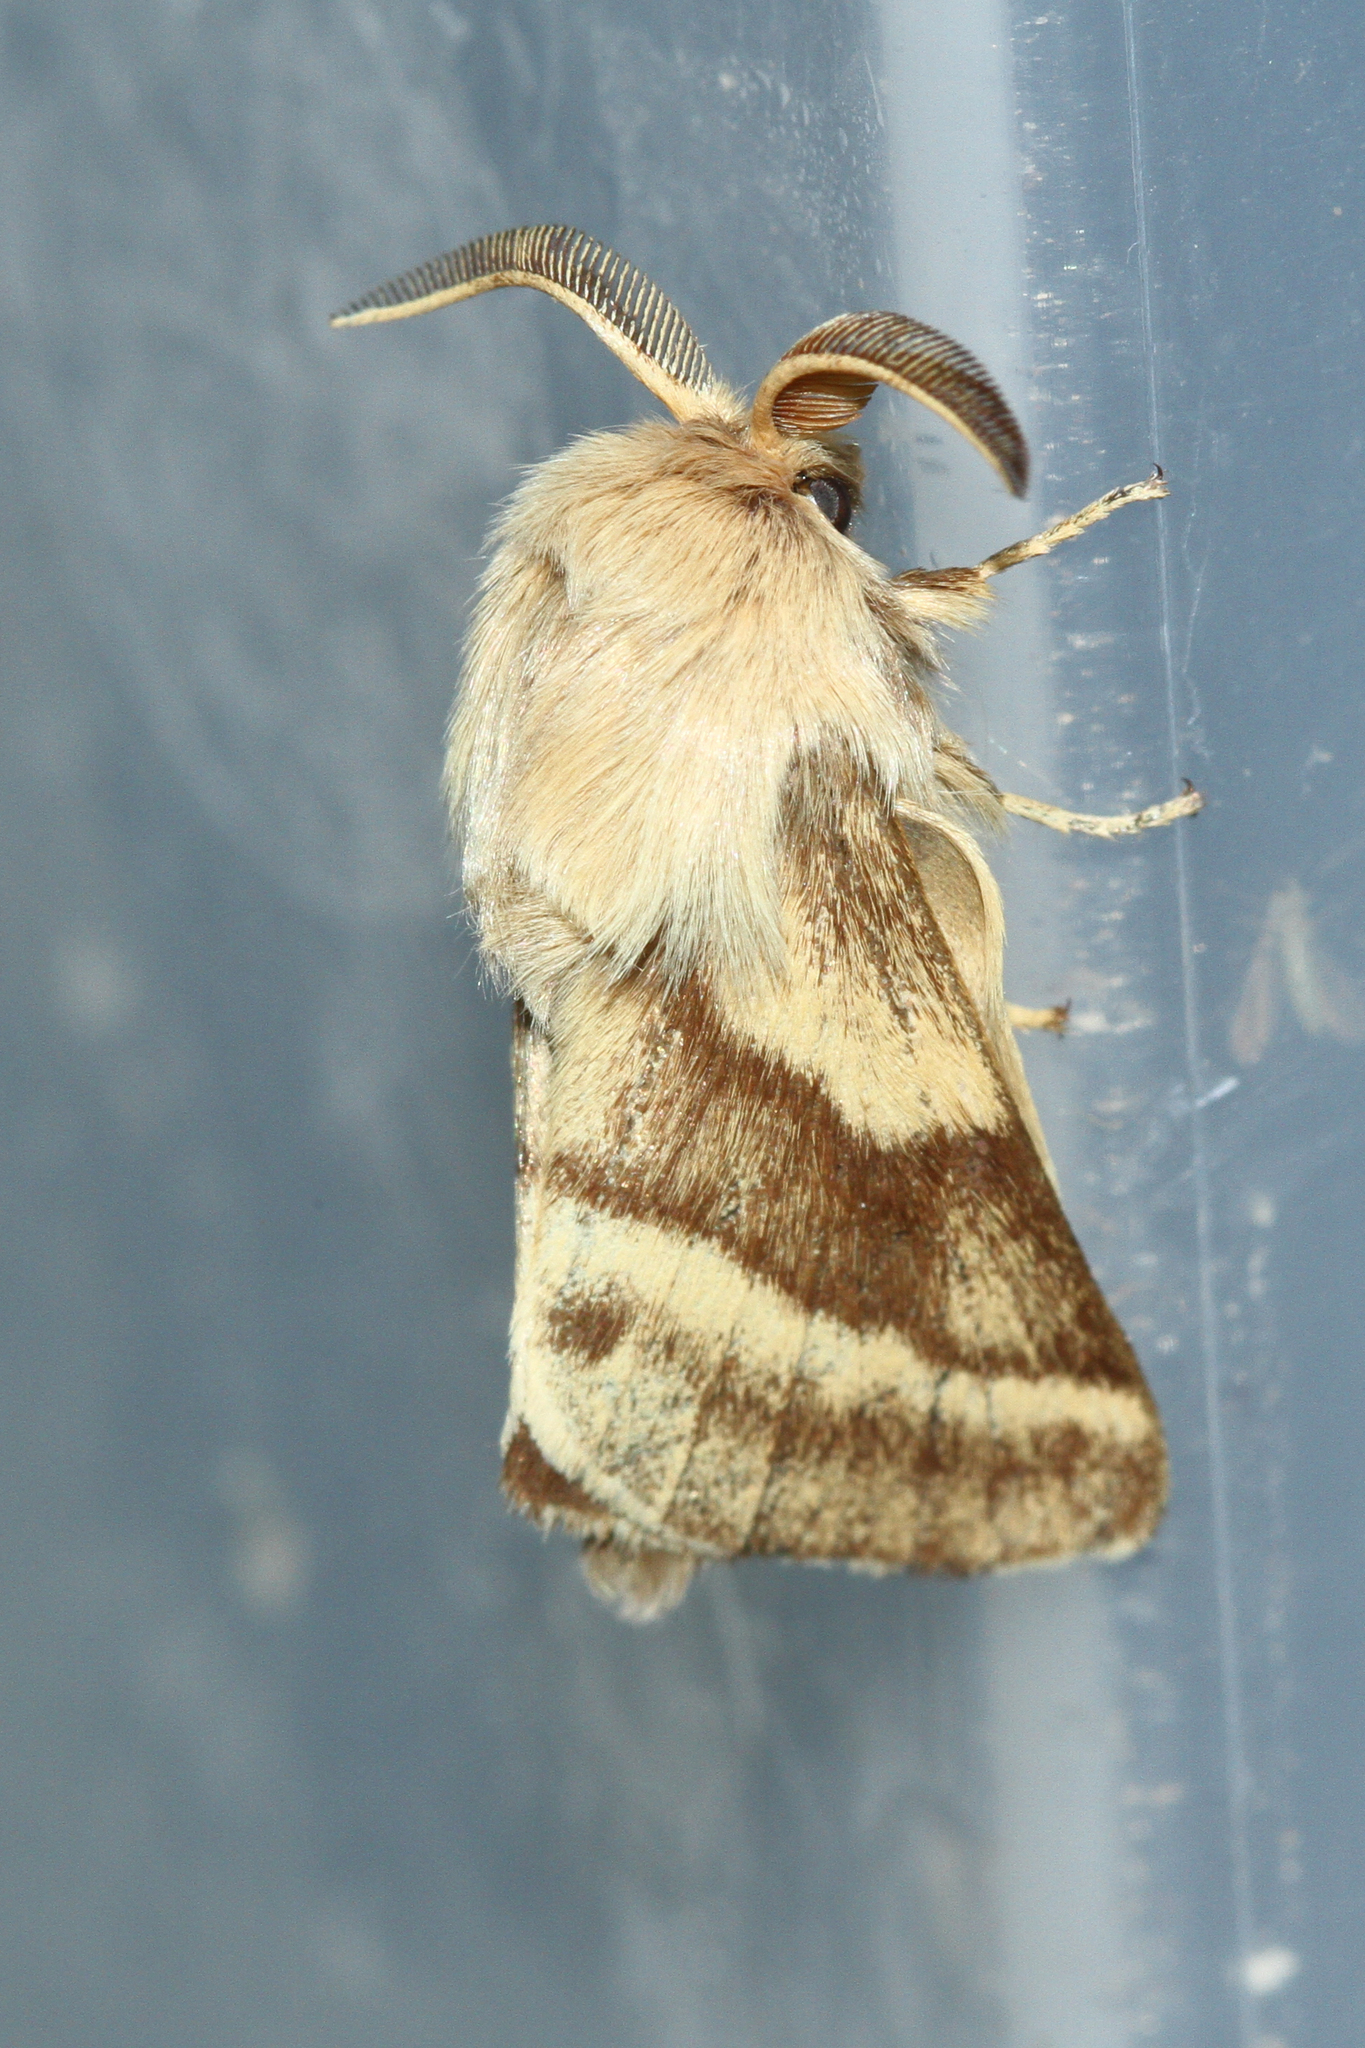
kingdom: Animalia
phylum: Arthropoda
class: Insecta
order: Lepidoptera
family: Lasiocampidae
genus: Malacosoma
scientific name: Malacosoma castrense
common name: Ground lackey
